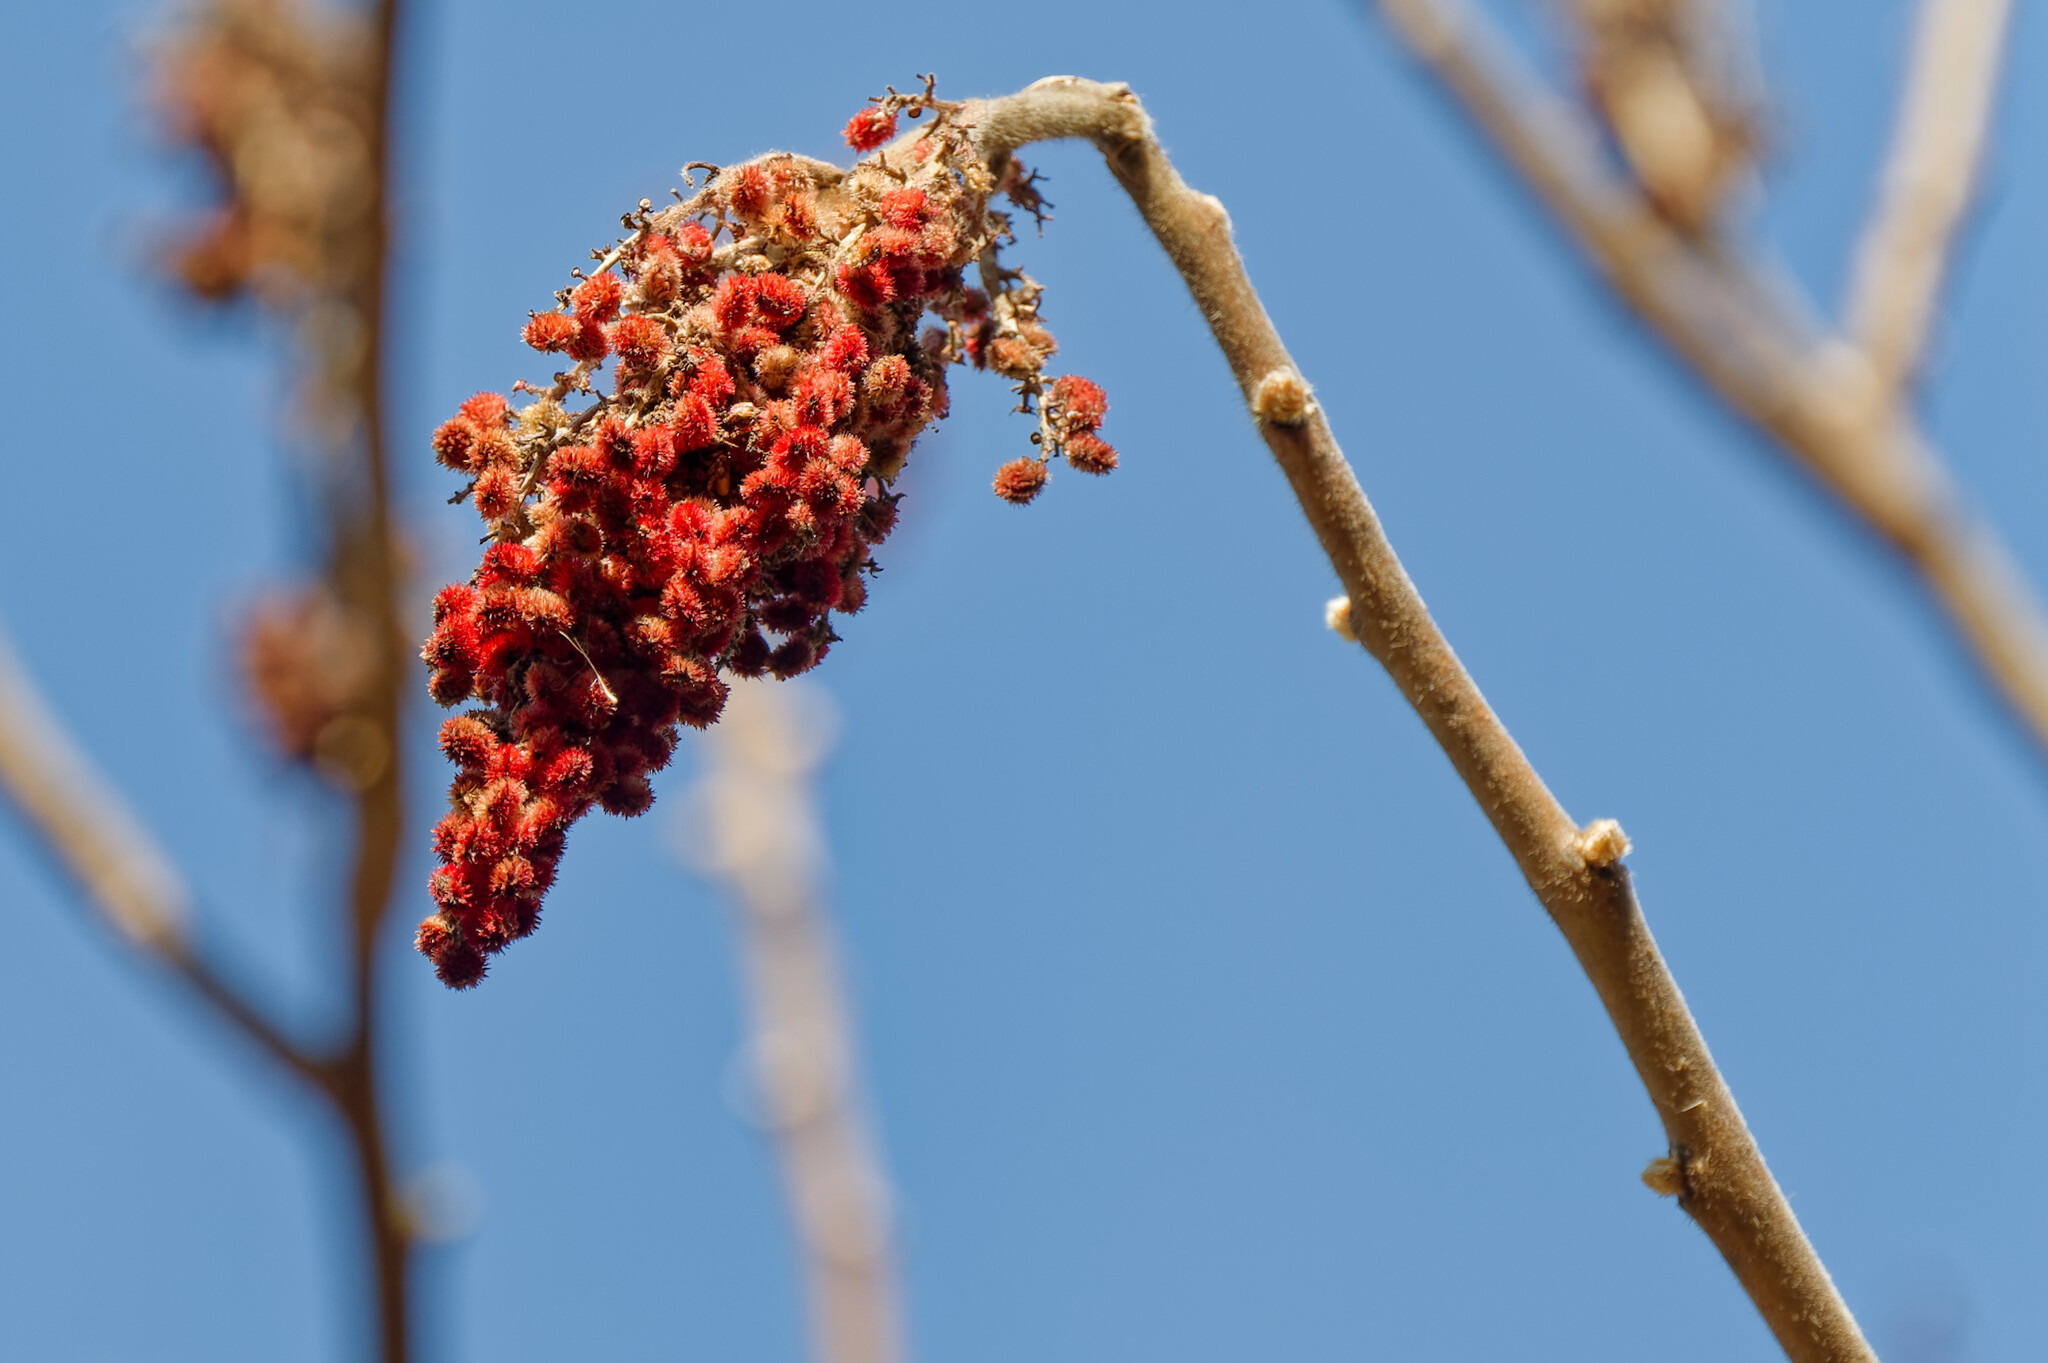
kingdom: Plantae
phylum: Tracheophyta
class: Magnoliopsida
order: Sapindales
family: Anacardiaceae
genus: Rhus
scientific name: Rhus typhina
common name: Staghorn sumac
